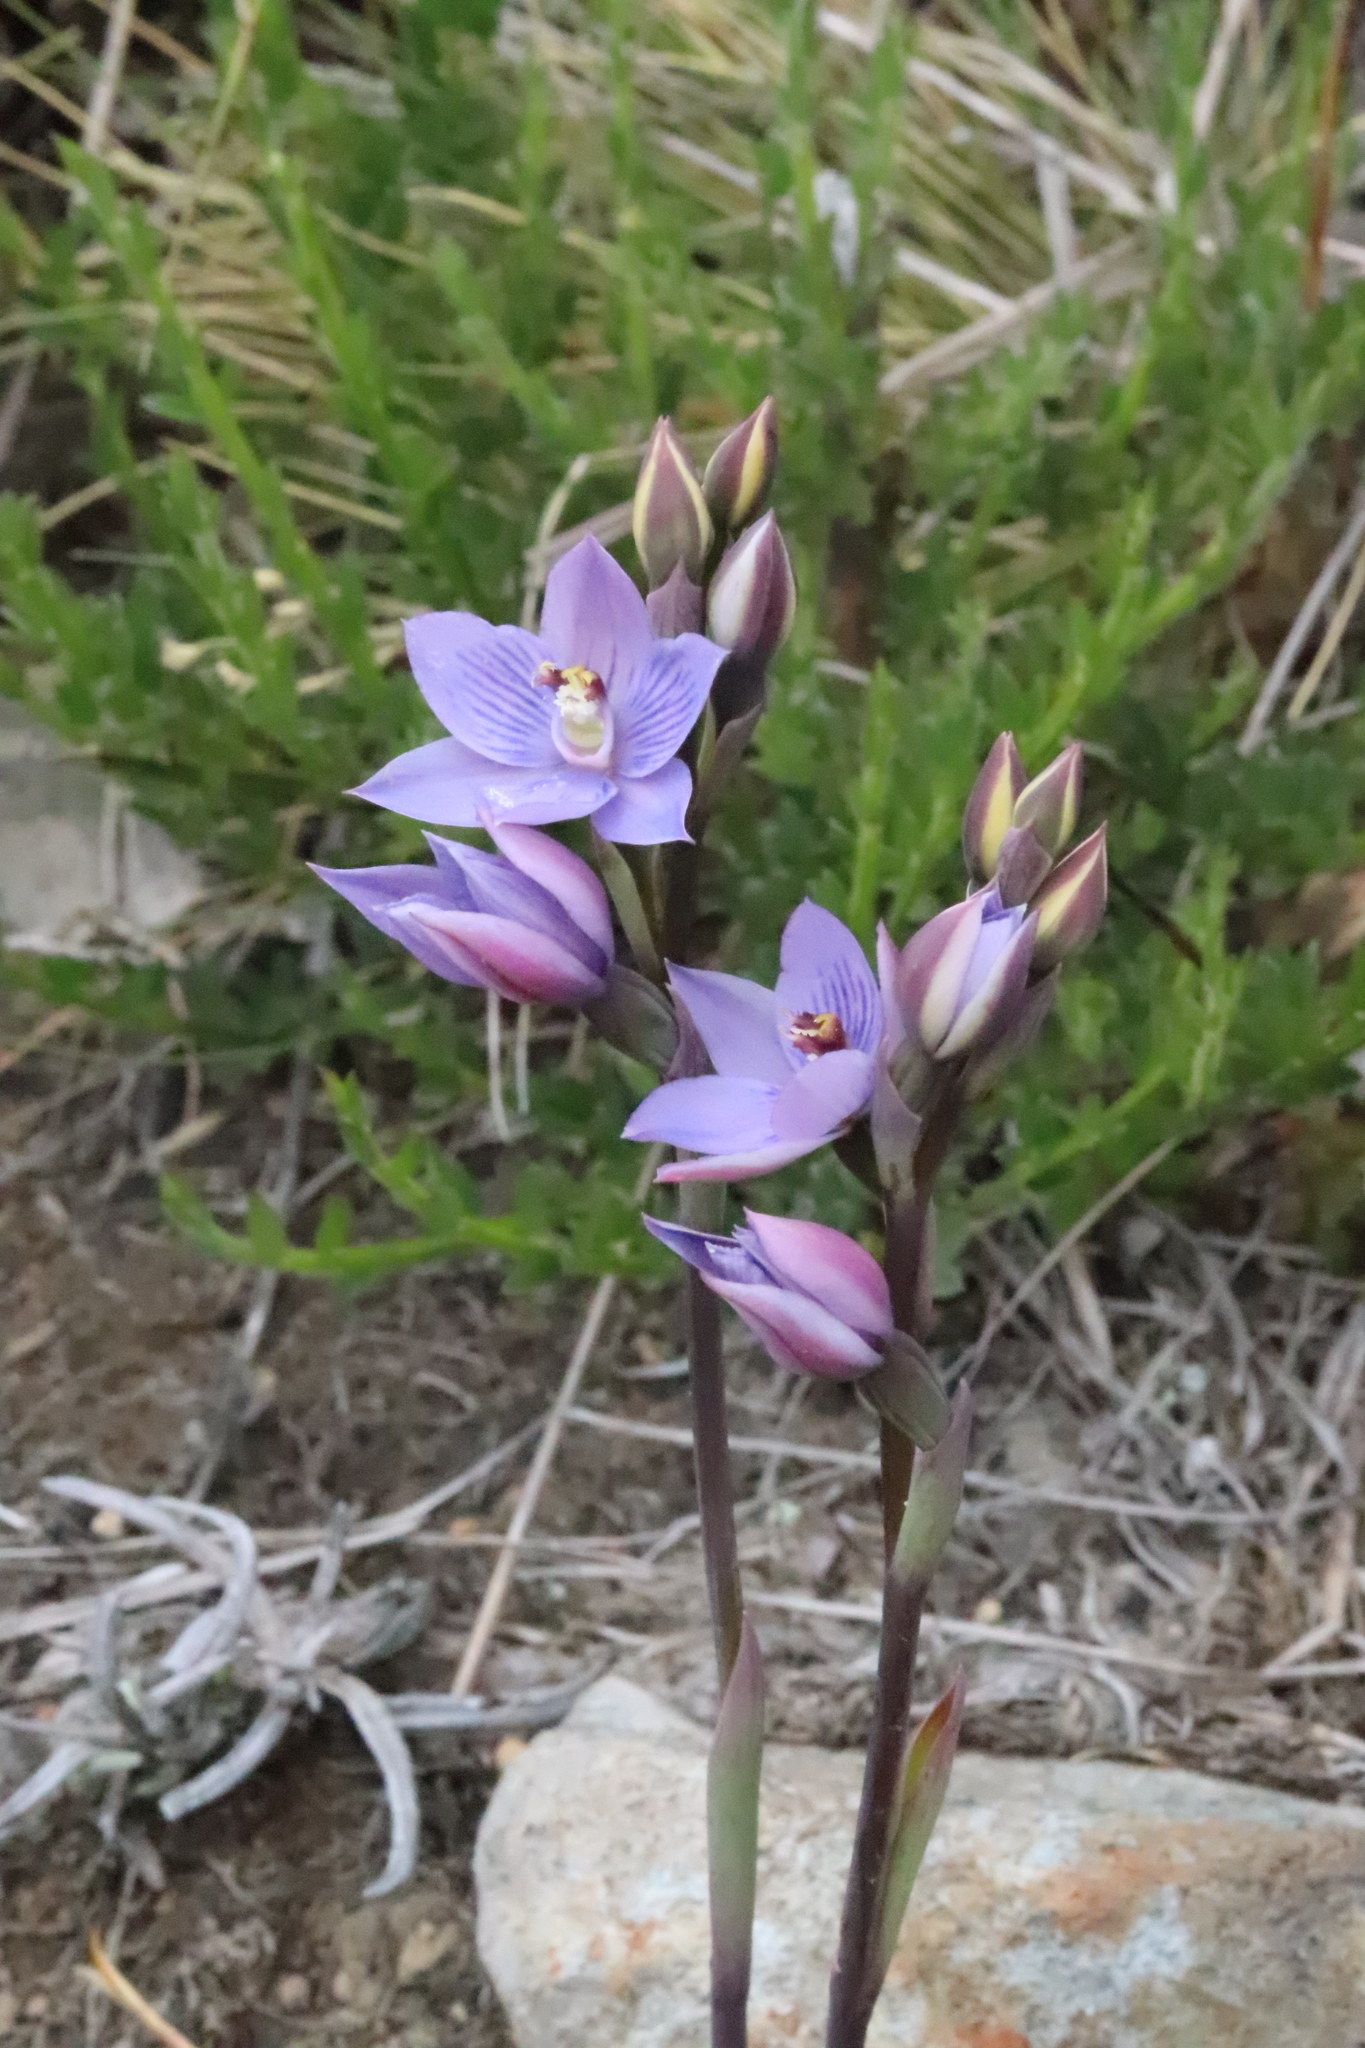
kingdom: Plantae
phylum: Tracheophyta
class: Liliopsida
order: Asparagales
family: Orchidaceae
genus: Thelymitra
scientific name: Thelymitra pulchella
